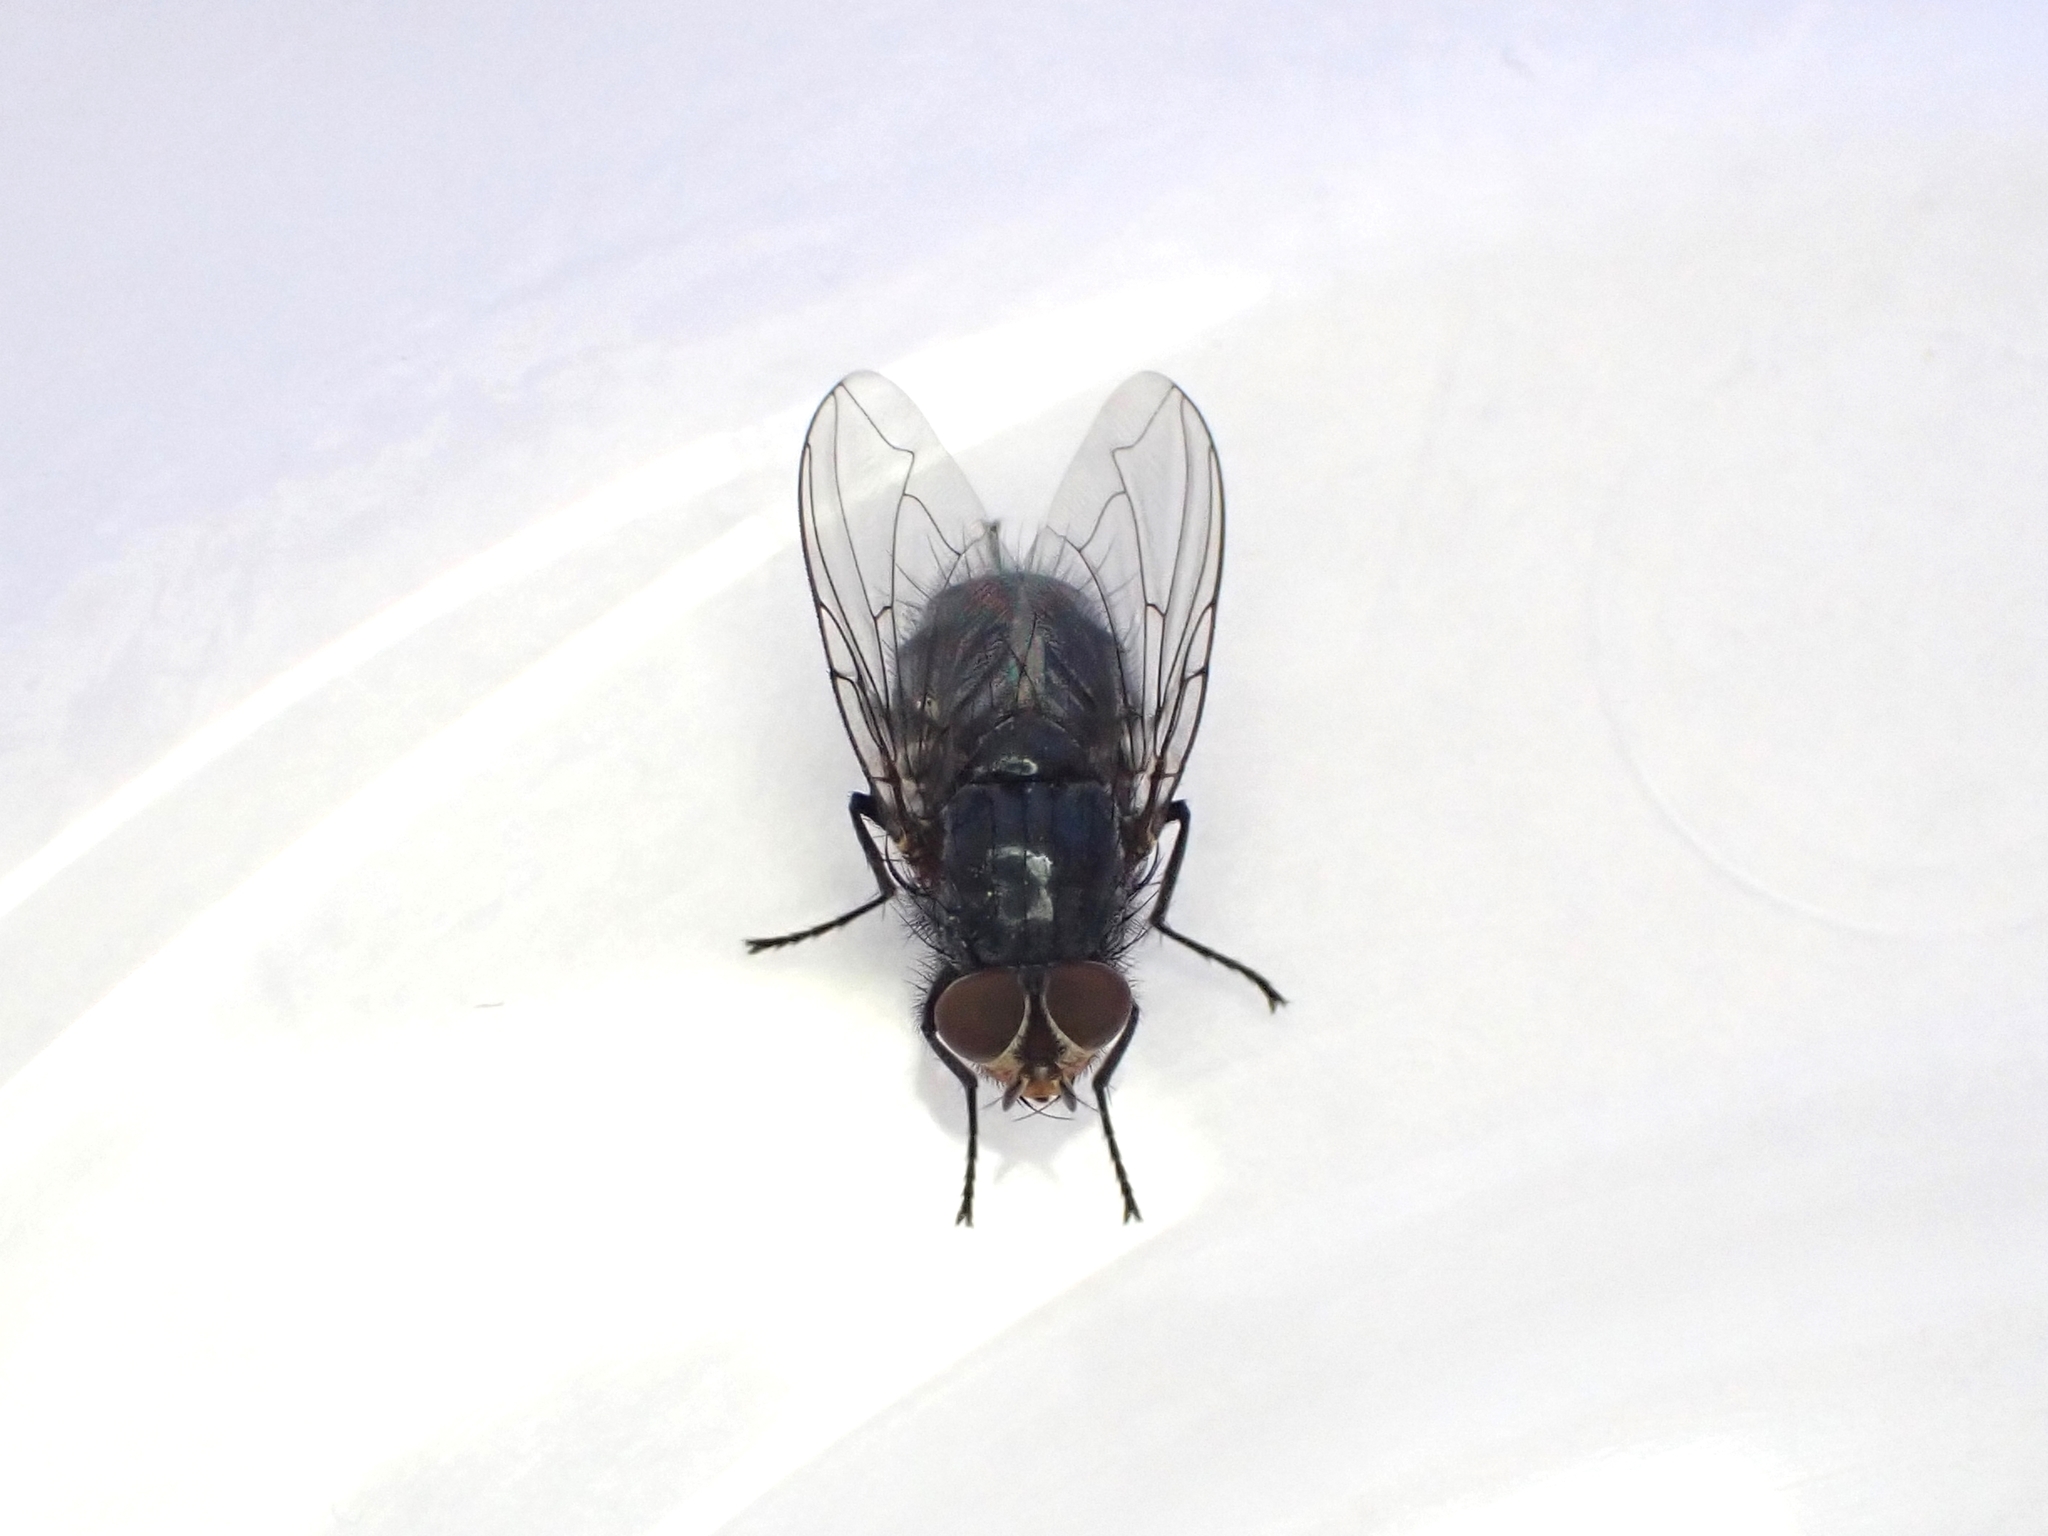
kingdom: Animalia
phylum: Arthropoda
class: Insecta
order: Diptera
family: Calliphoridae
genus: Calliphora
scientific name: Calliphora vicina
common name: Common blow flie
